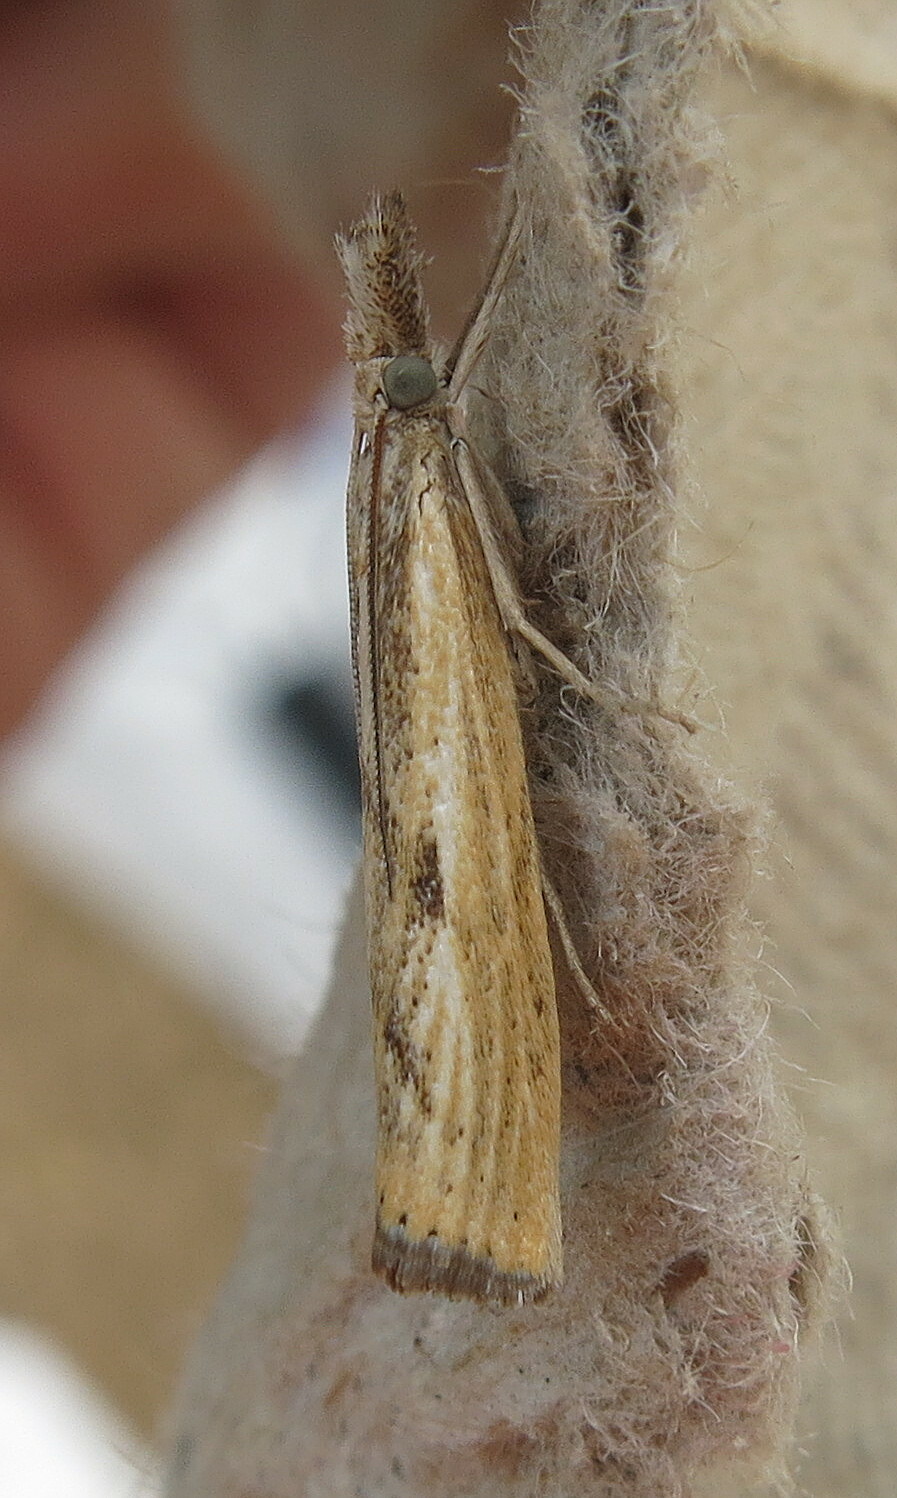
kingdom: Animalia
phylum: Arthropoda
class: Insecta
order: Lepidoptera
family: Crambidae
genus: Agriphila
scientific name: Agriphila inquinatella
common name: Barred grass-veneer
